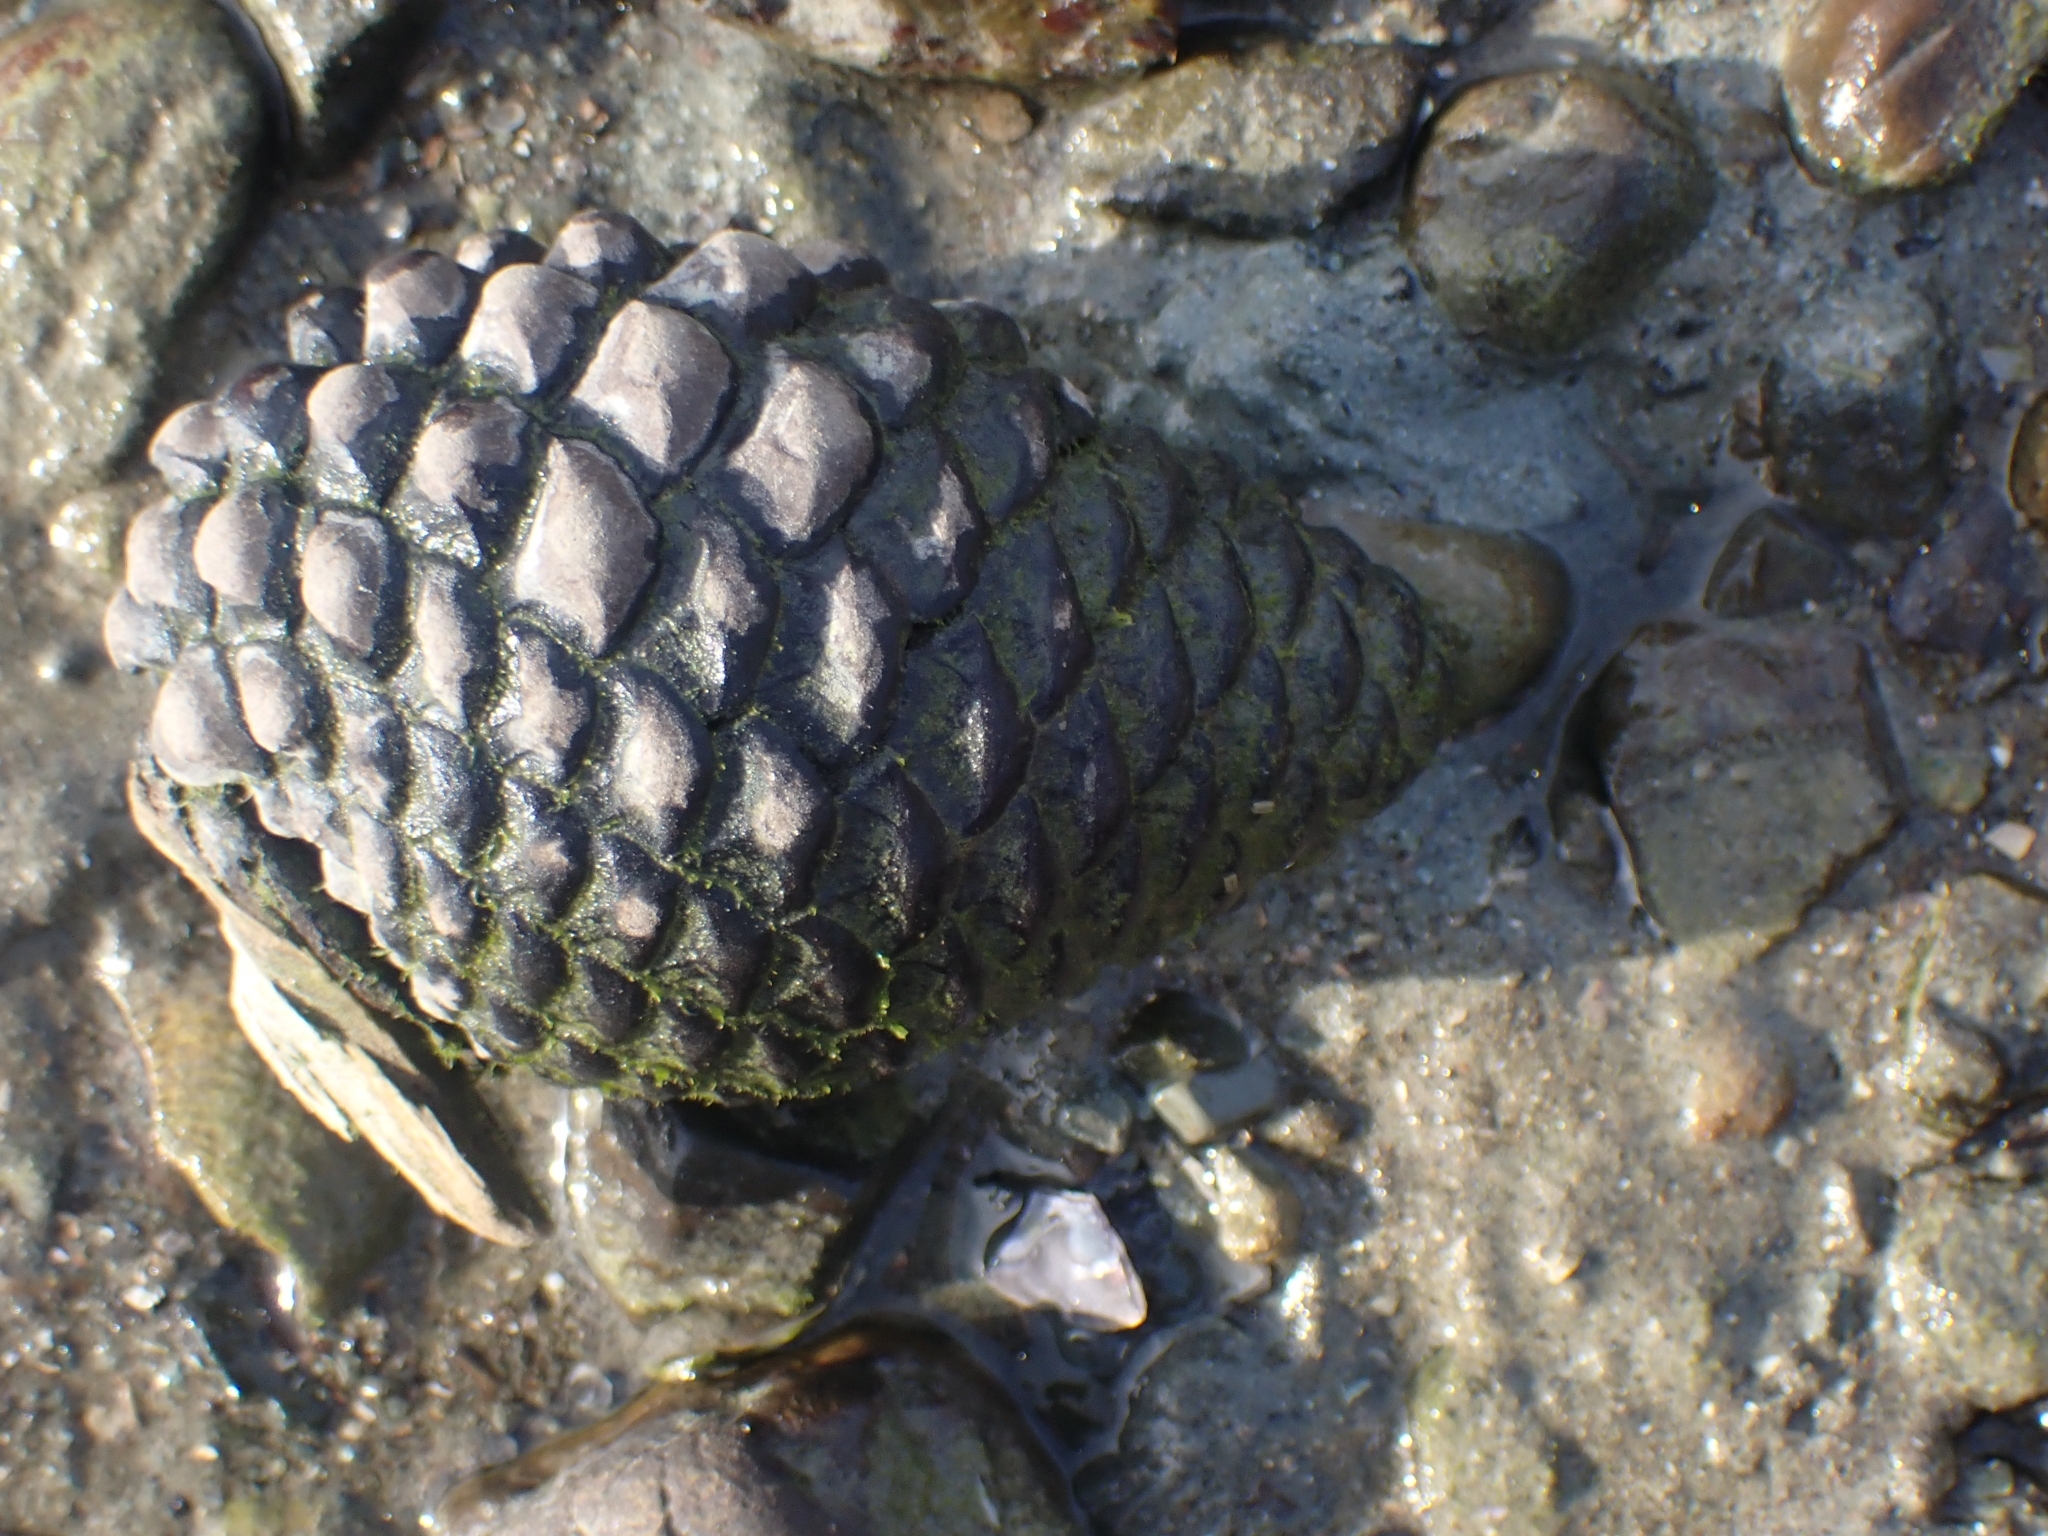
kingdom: Plantae
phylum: Tracheophyta
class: Pinopsida
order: Pinales
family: Pinaceae
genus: Pinus
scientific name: Pinus radiata
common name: Monterey pine
